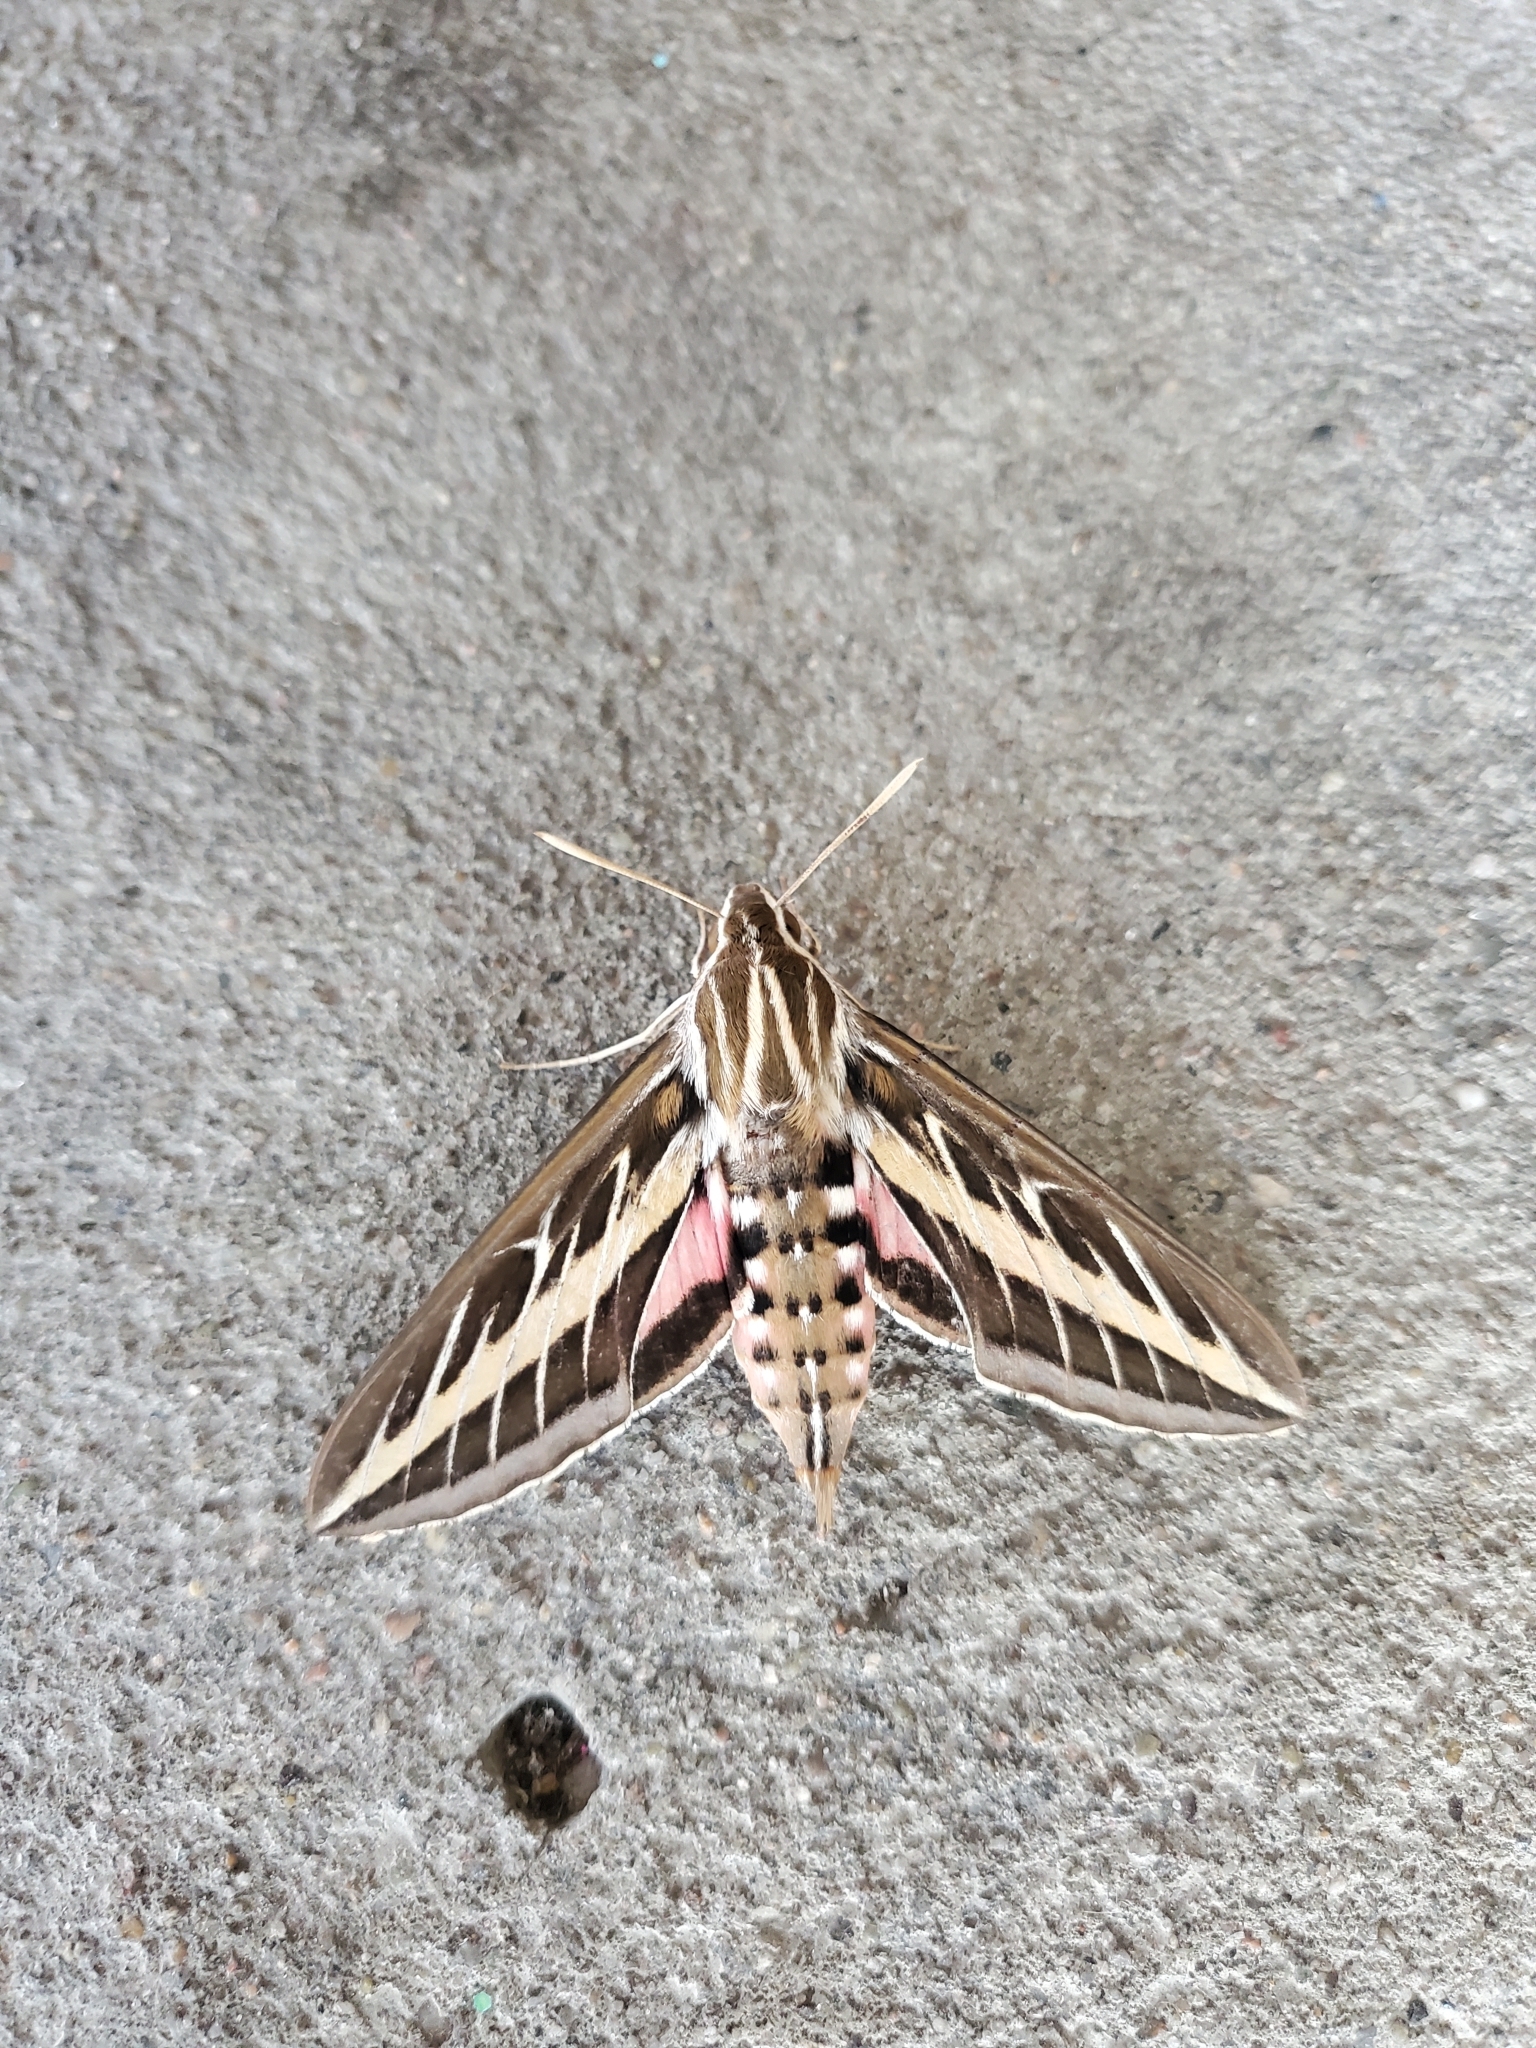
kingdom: Animalia
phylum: Arthropoda
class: Insecta
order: Lepidoptera
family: Sphingidae
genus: Hyles
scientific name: Hyles lineata
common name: White-lined sphinx
